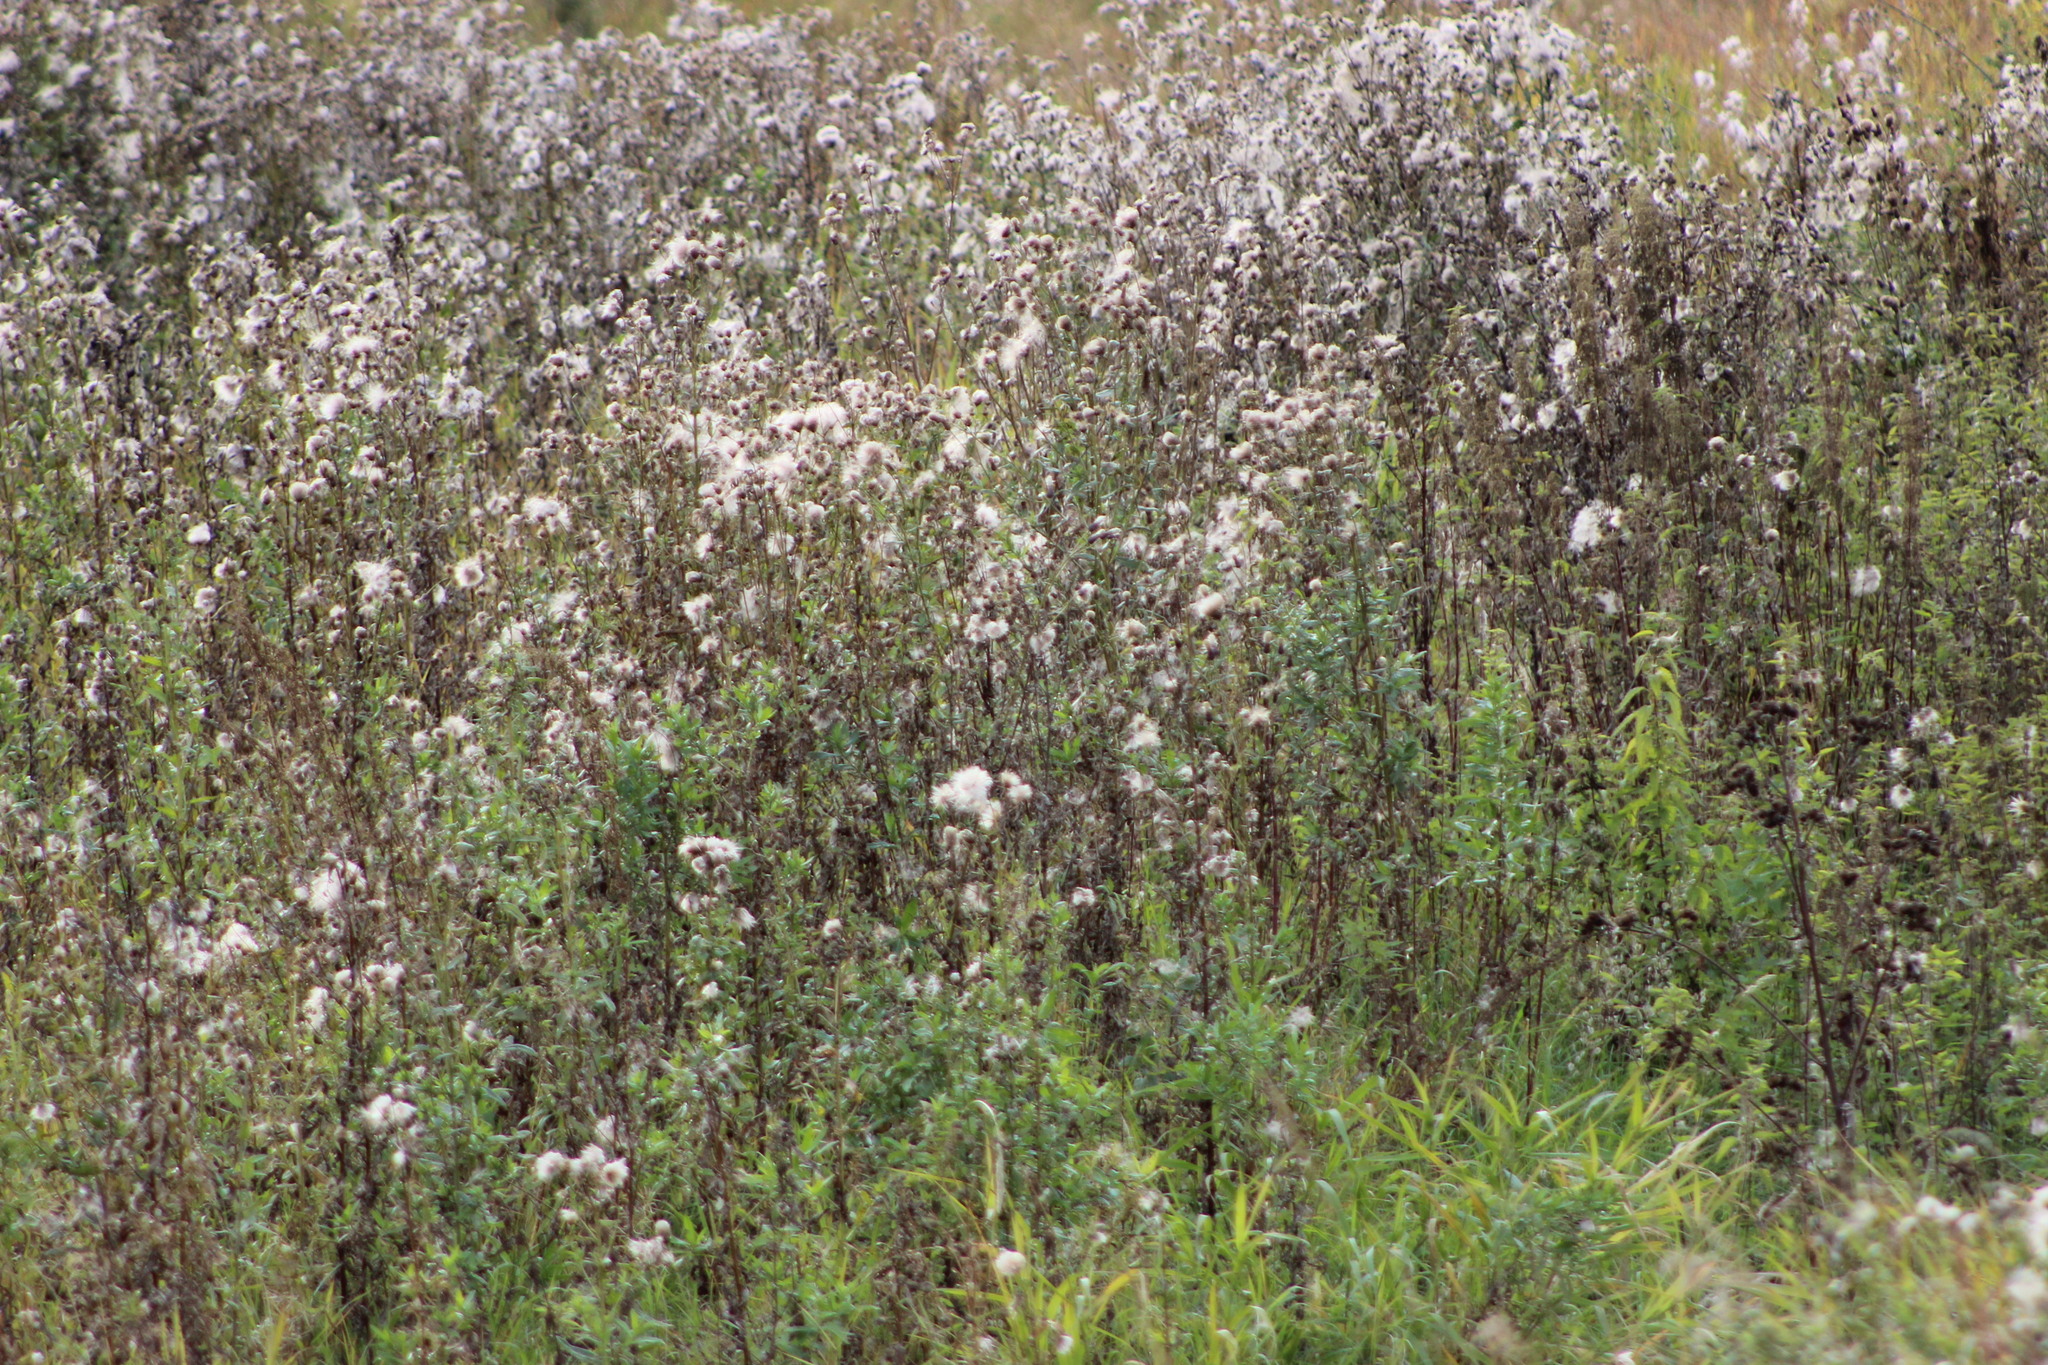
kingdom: Plantae
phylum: Tracheophyta
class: Magnoliopsida
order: Asterales
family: Asteraceae
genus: Cirsium
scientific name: Cirsium arvense
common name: Creeping thistle
